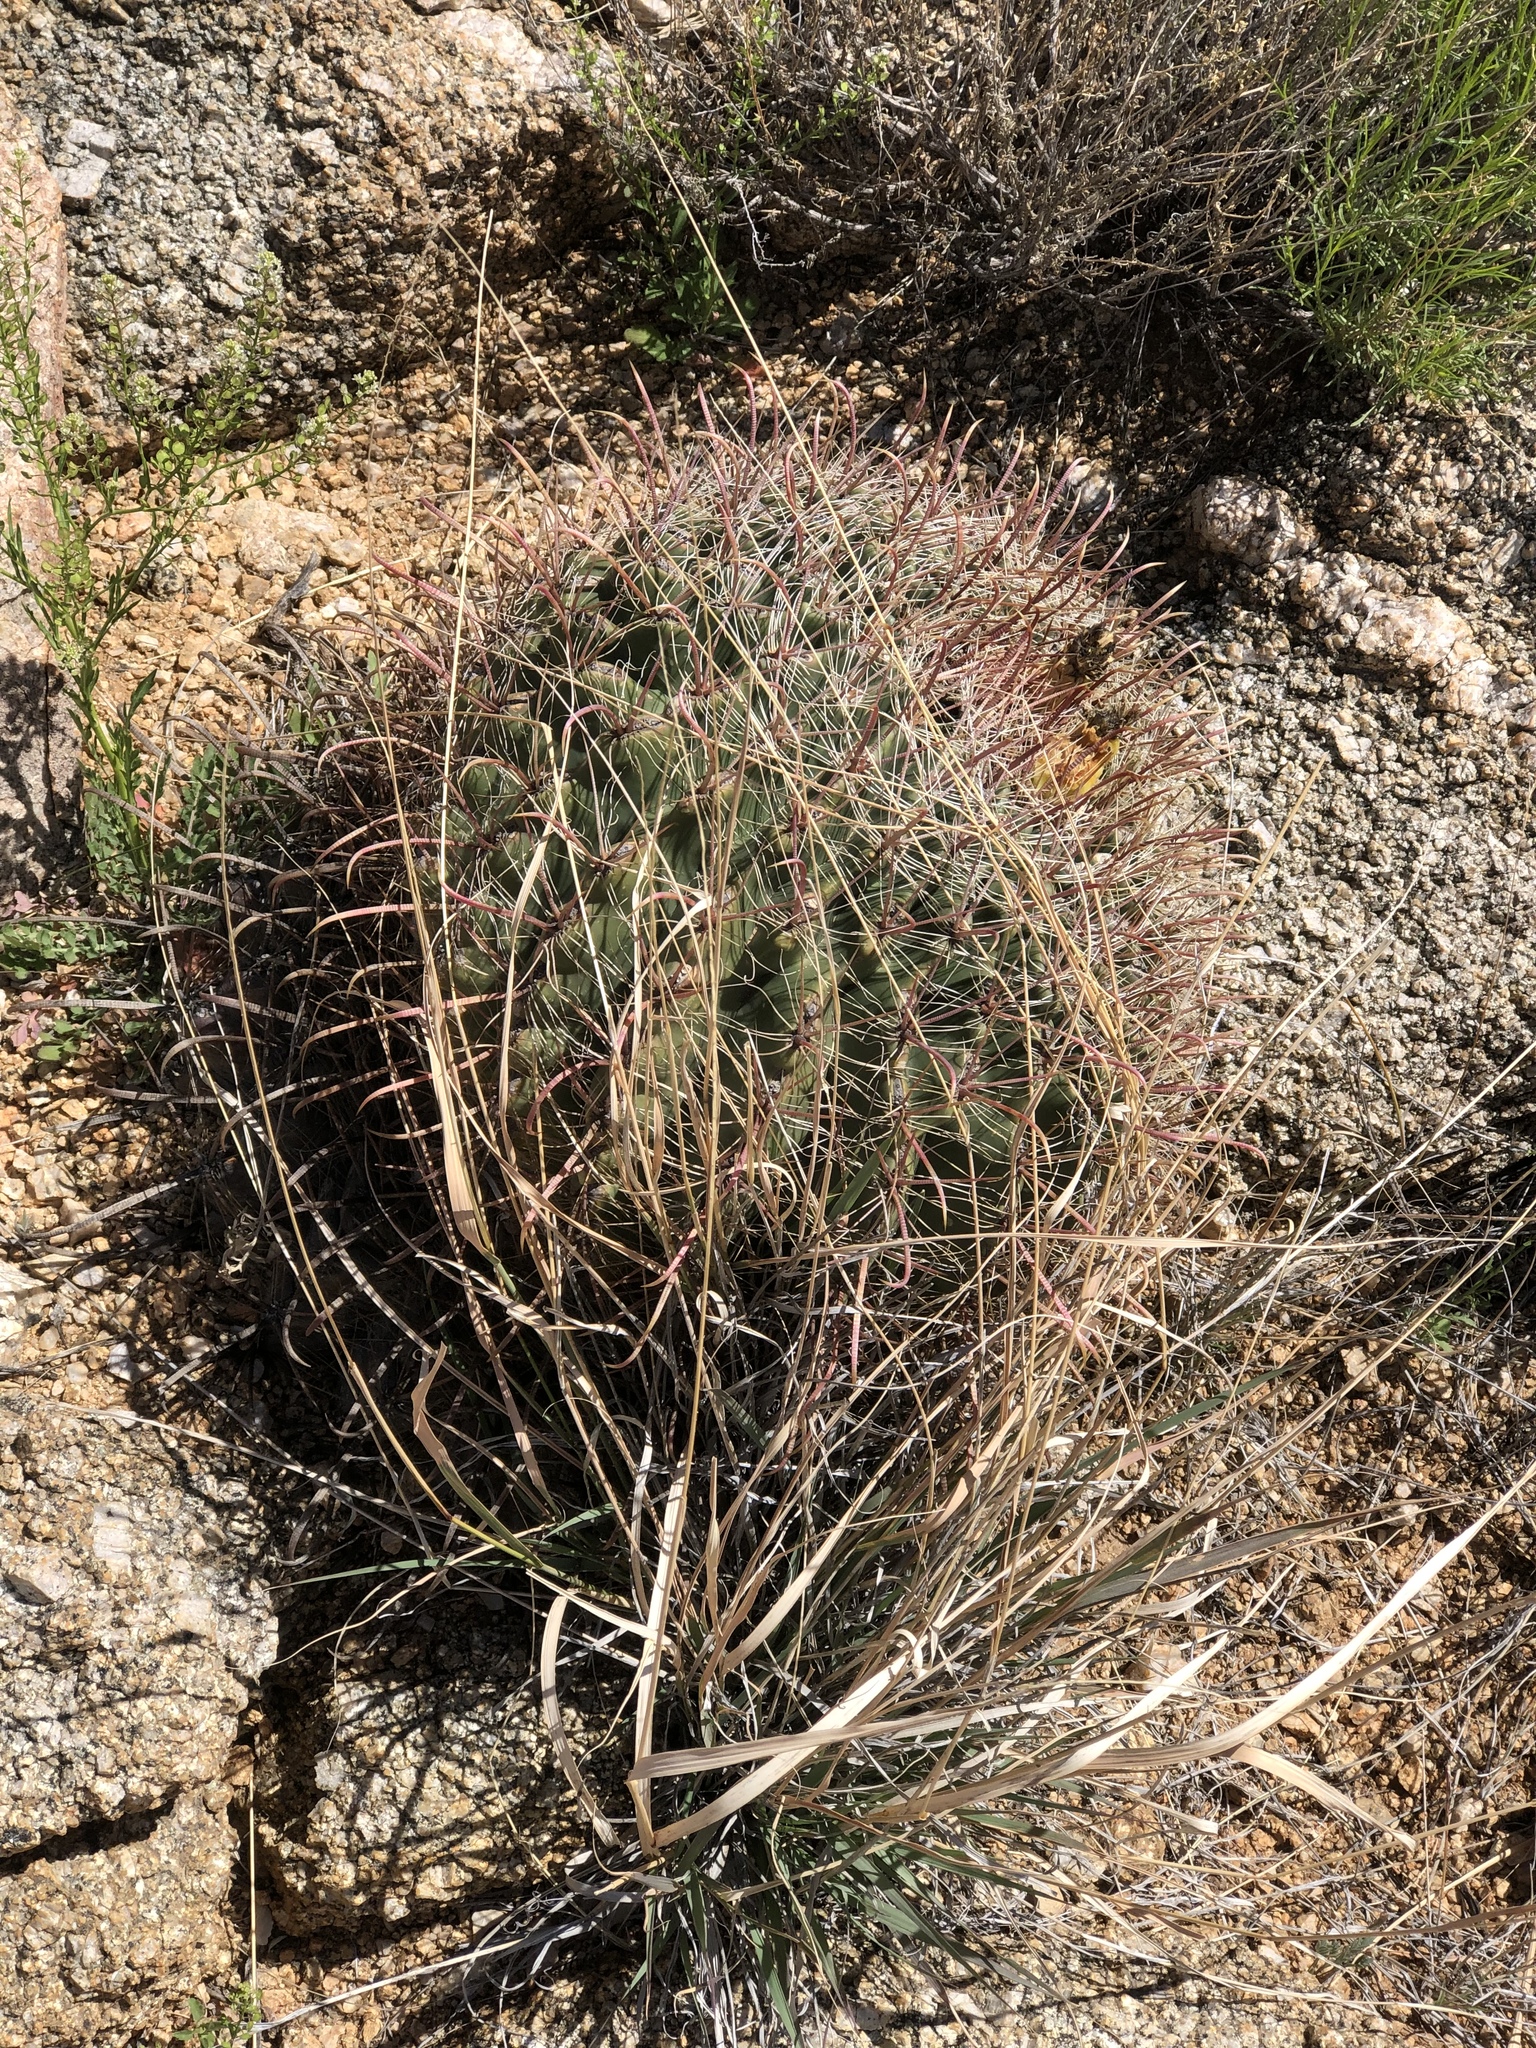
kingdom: Plantae
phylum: Tracheophyta
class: Magnoliopsida
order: Caryophyllales
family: Cactaceae
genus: Ferocactus
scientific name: Ferocactus wislizeni
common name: Candy barrel cactus
